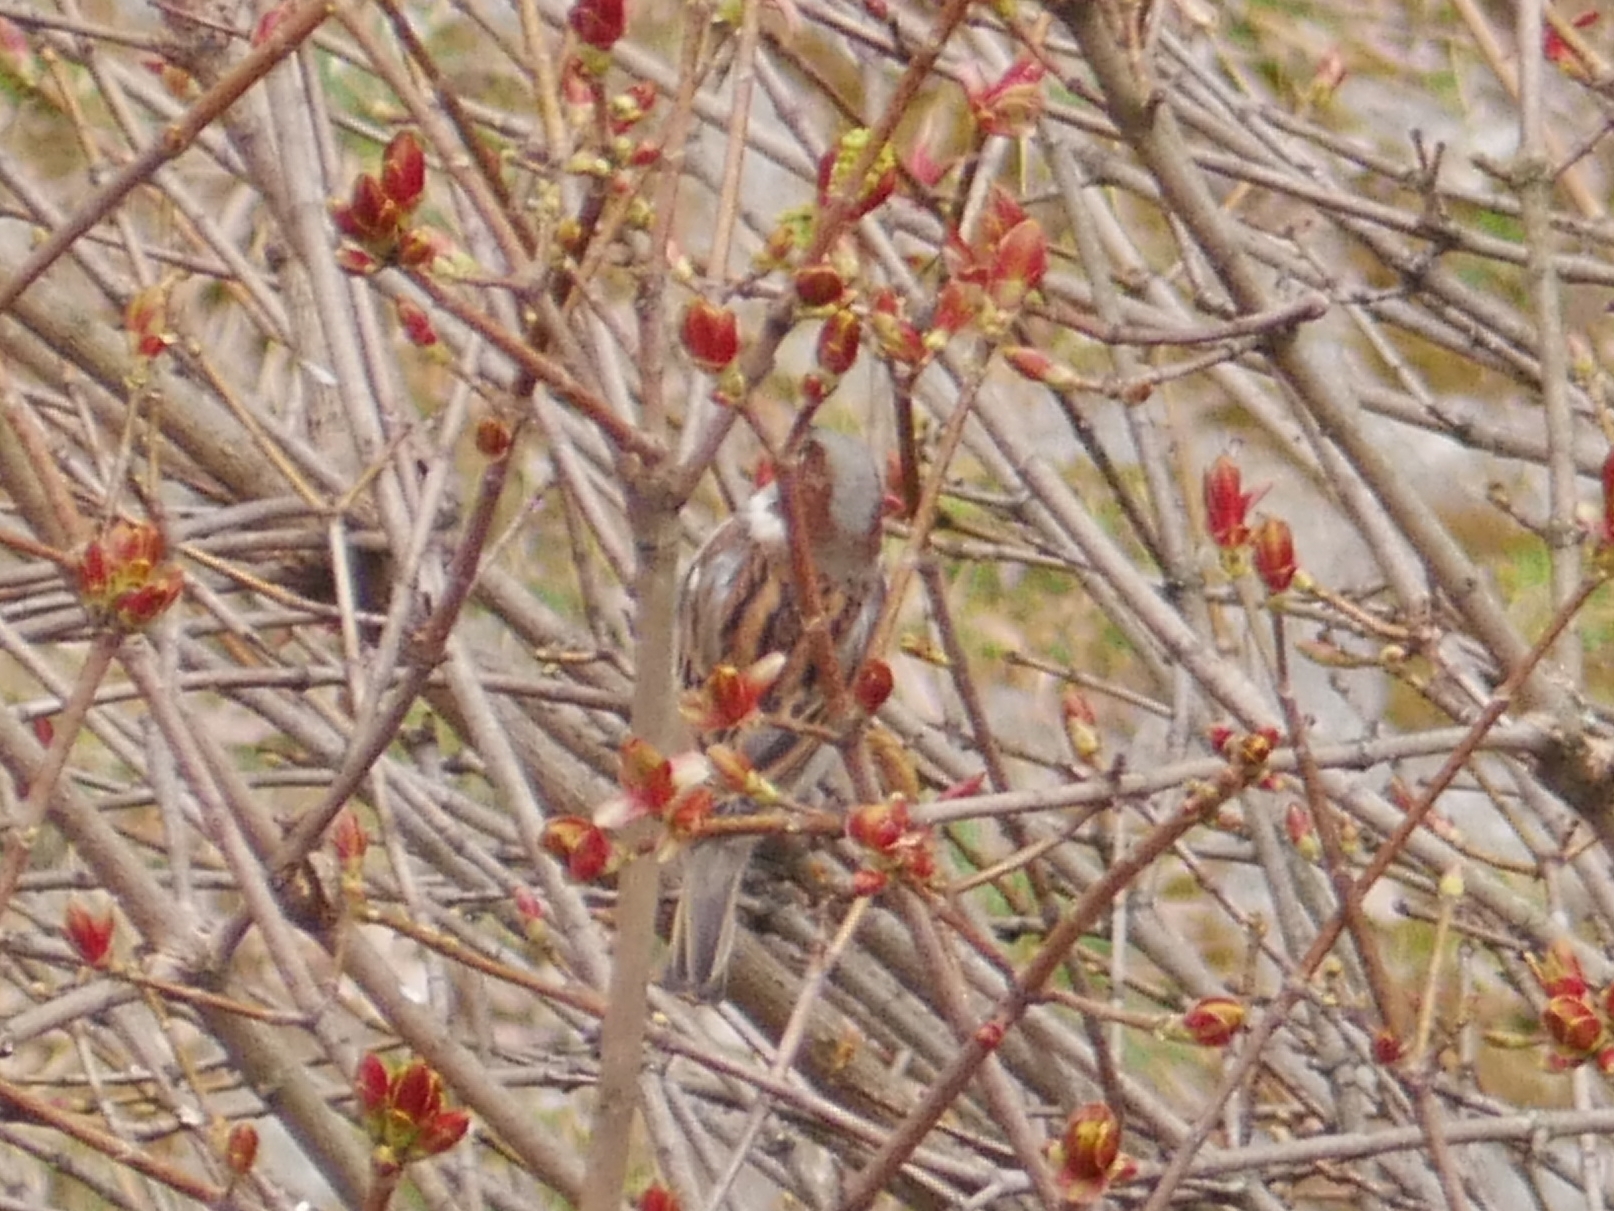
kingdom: Animalia
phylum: Chordata
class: Aves
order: Passeriformes
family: Passeridae
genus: Passer
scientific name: Passer domesticus
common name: House sparrow
